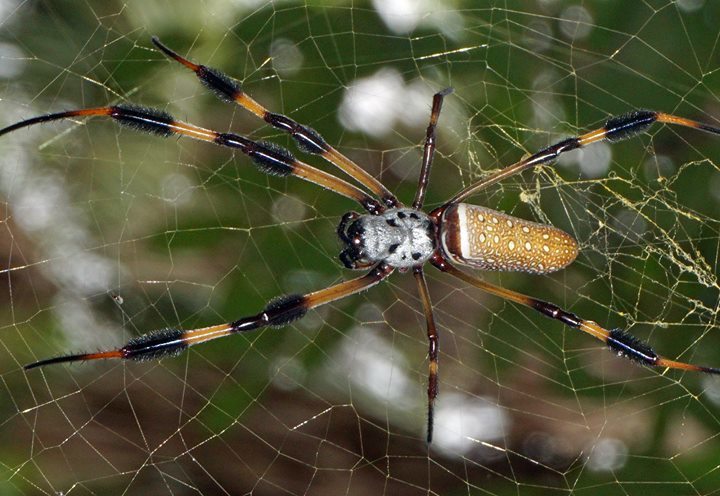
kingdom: Animalia
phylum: Arthropoda
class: Arachnida
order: Araneae
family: Araneidae
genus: Trichonephila
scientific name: Trichonephila clavipes
